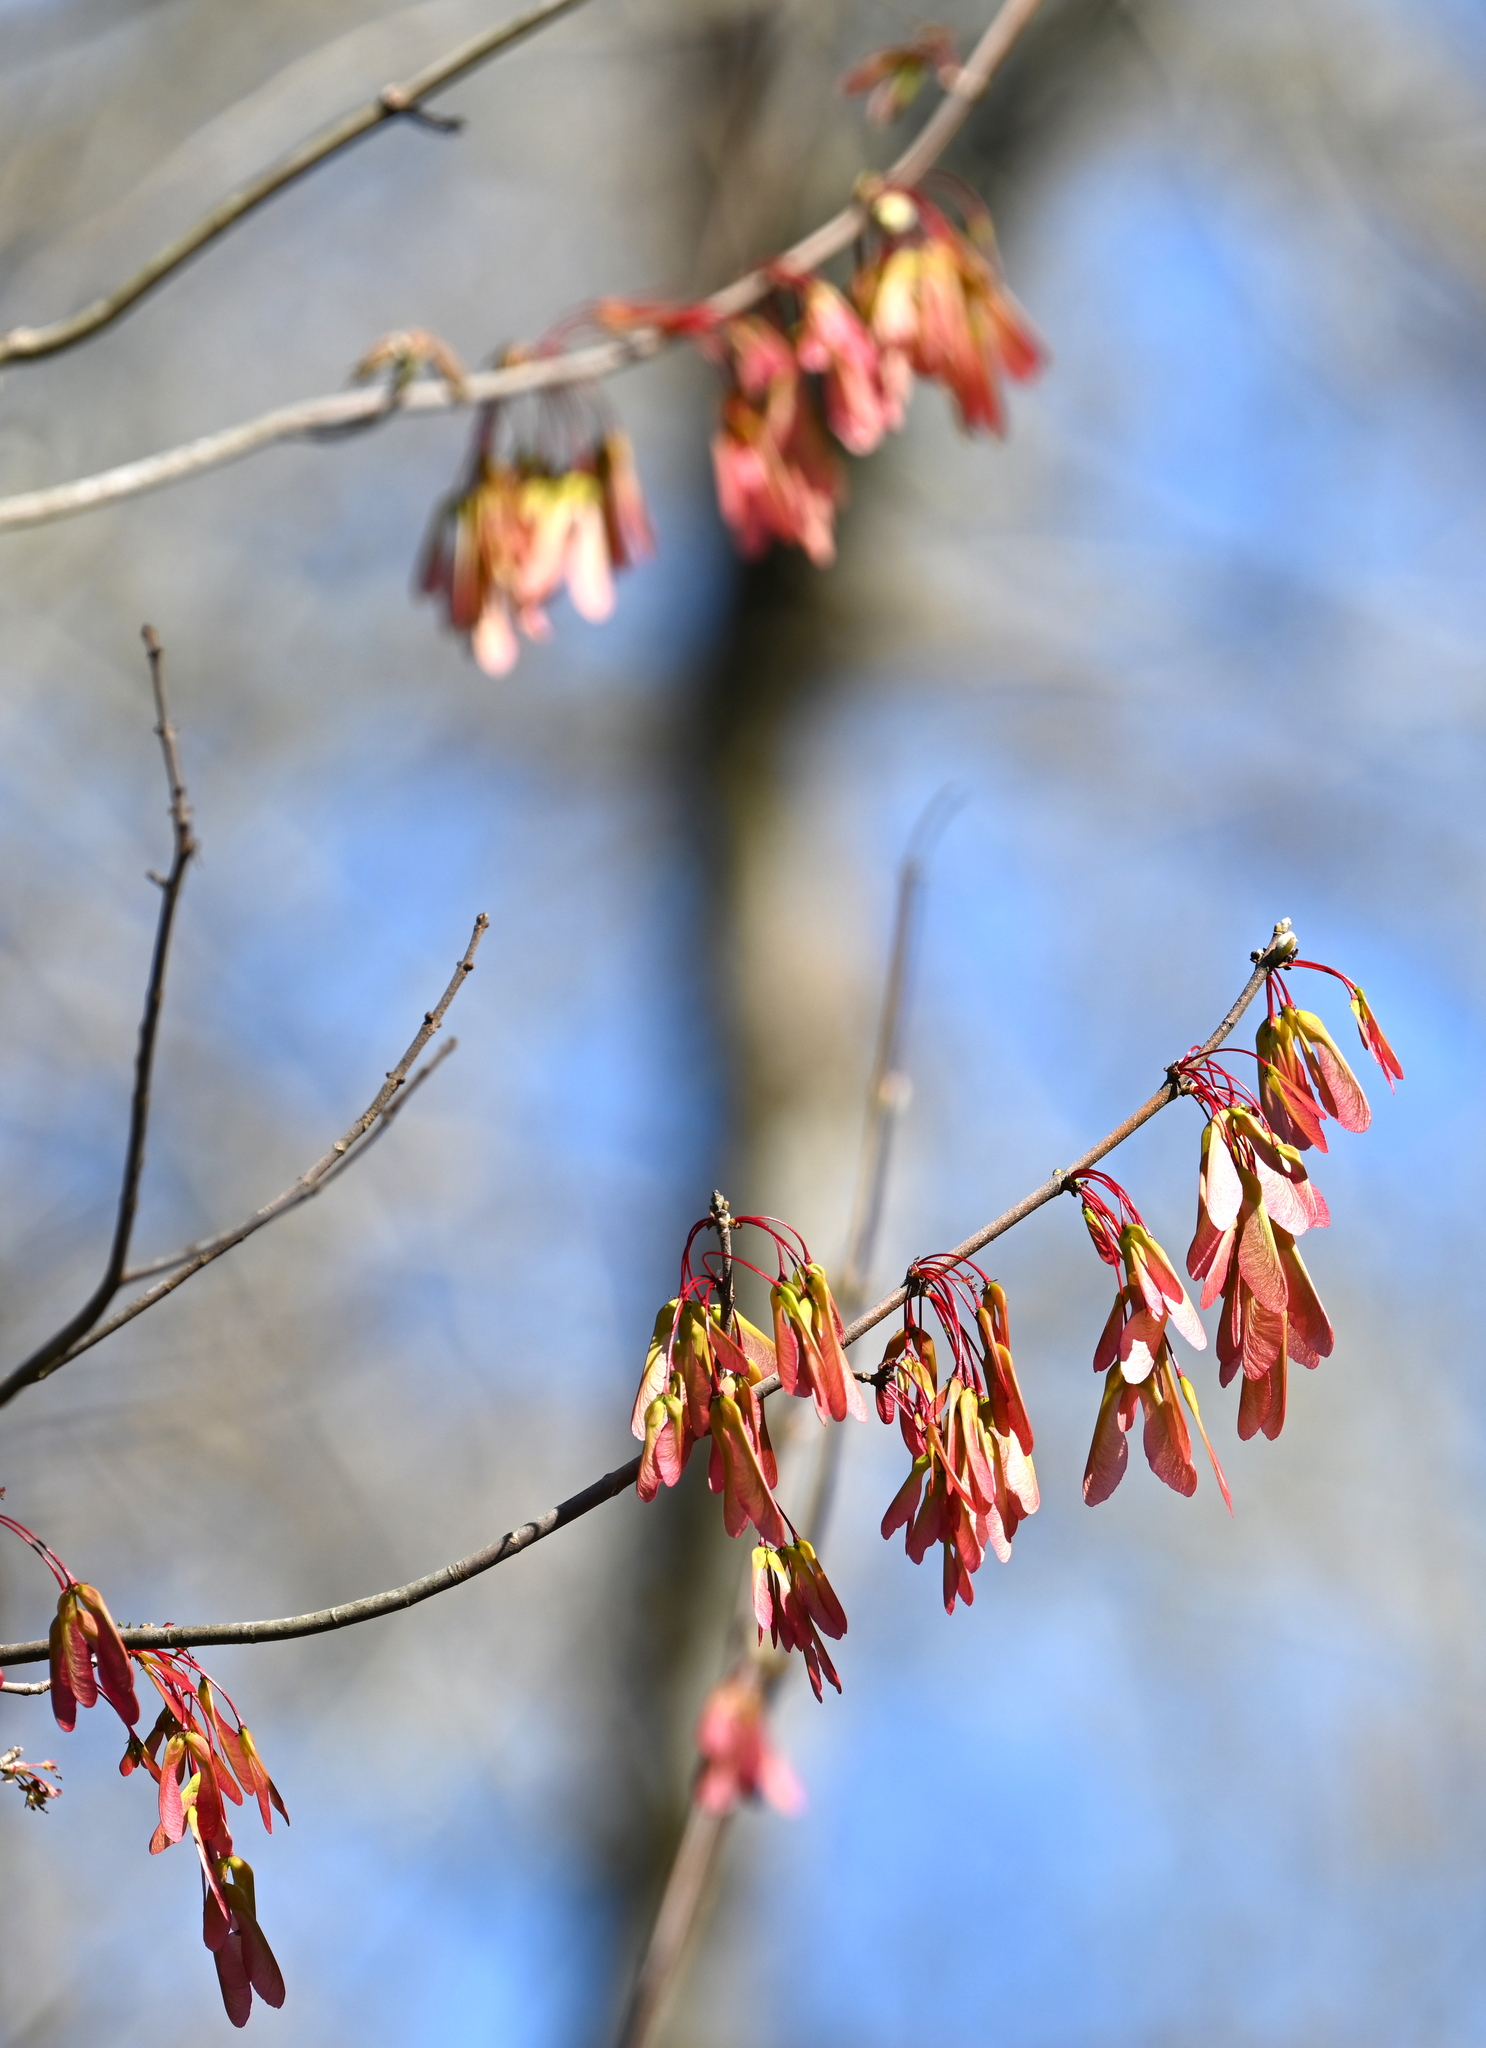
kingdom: Plantae
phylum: Tracheophyta
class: Magnoliopsida
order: Sapindales
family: Sapindaceae
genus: Acer
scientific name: Acer rubrum
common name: Red maple
